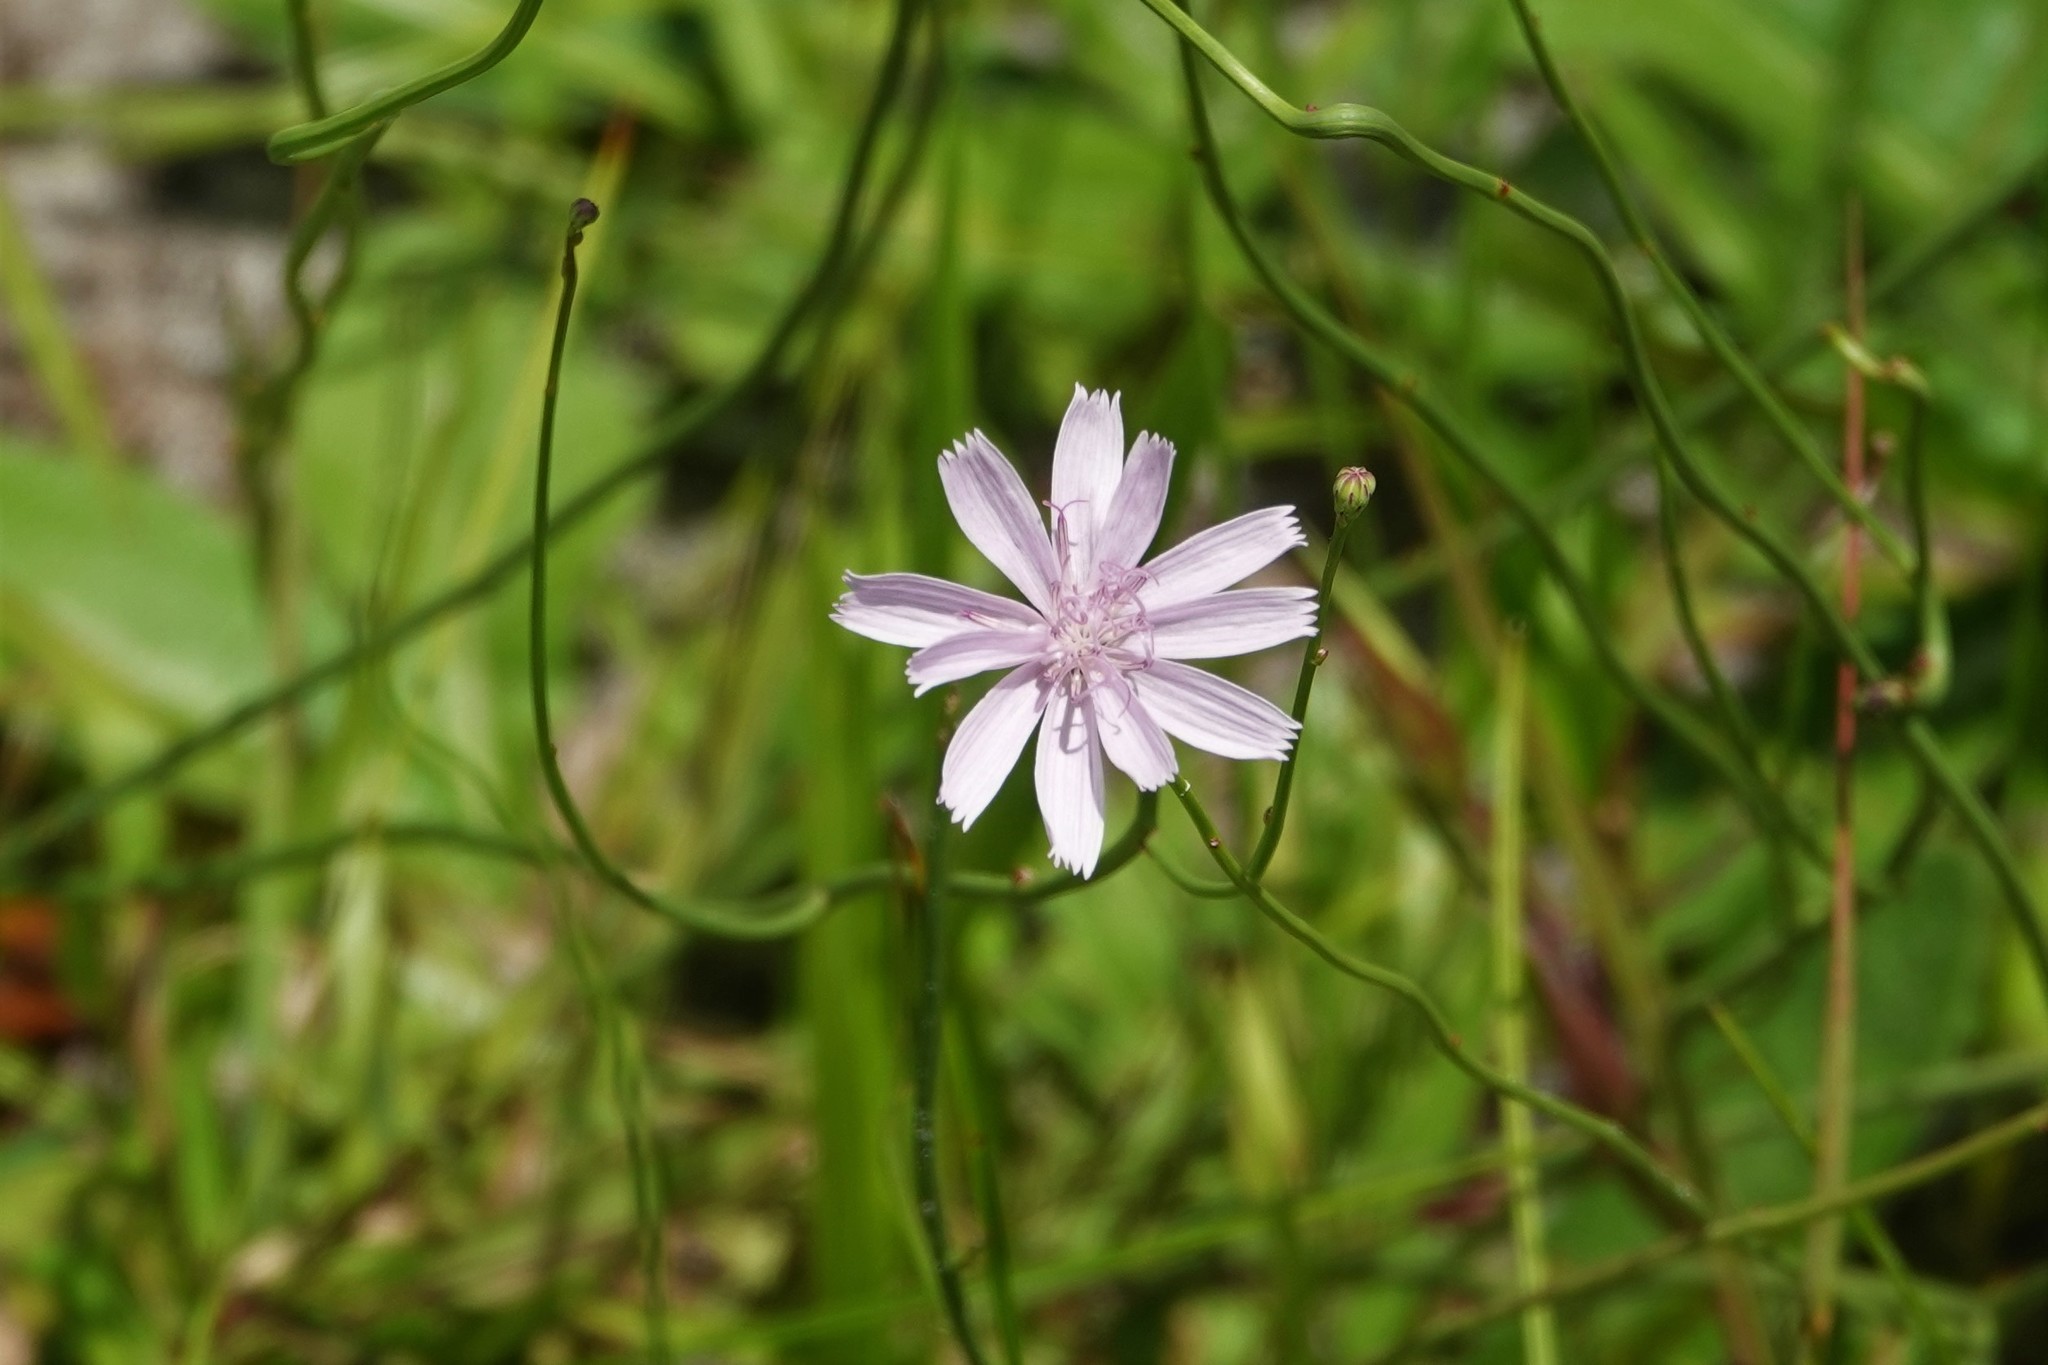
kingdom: Plantae
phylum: Tracheophyta
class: Magnoliopsida
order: Asterales
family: Asteraceae
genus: Lygodesmia
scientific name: Lygodesmia aphylla
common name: Rose-rush
